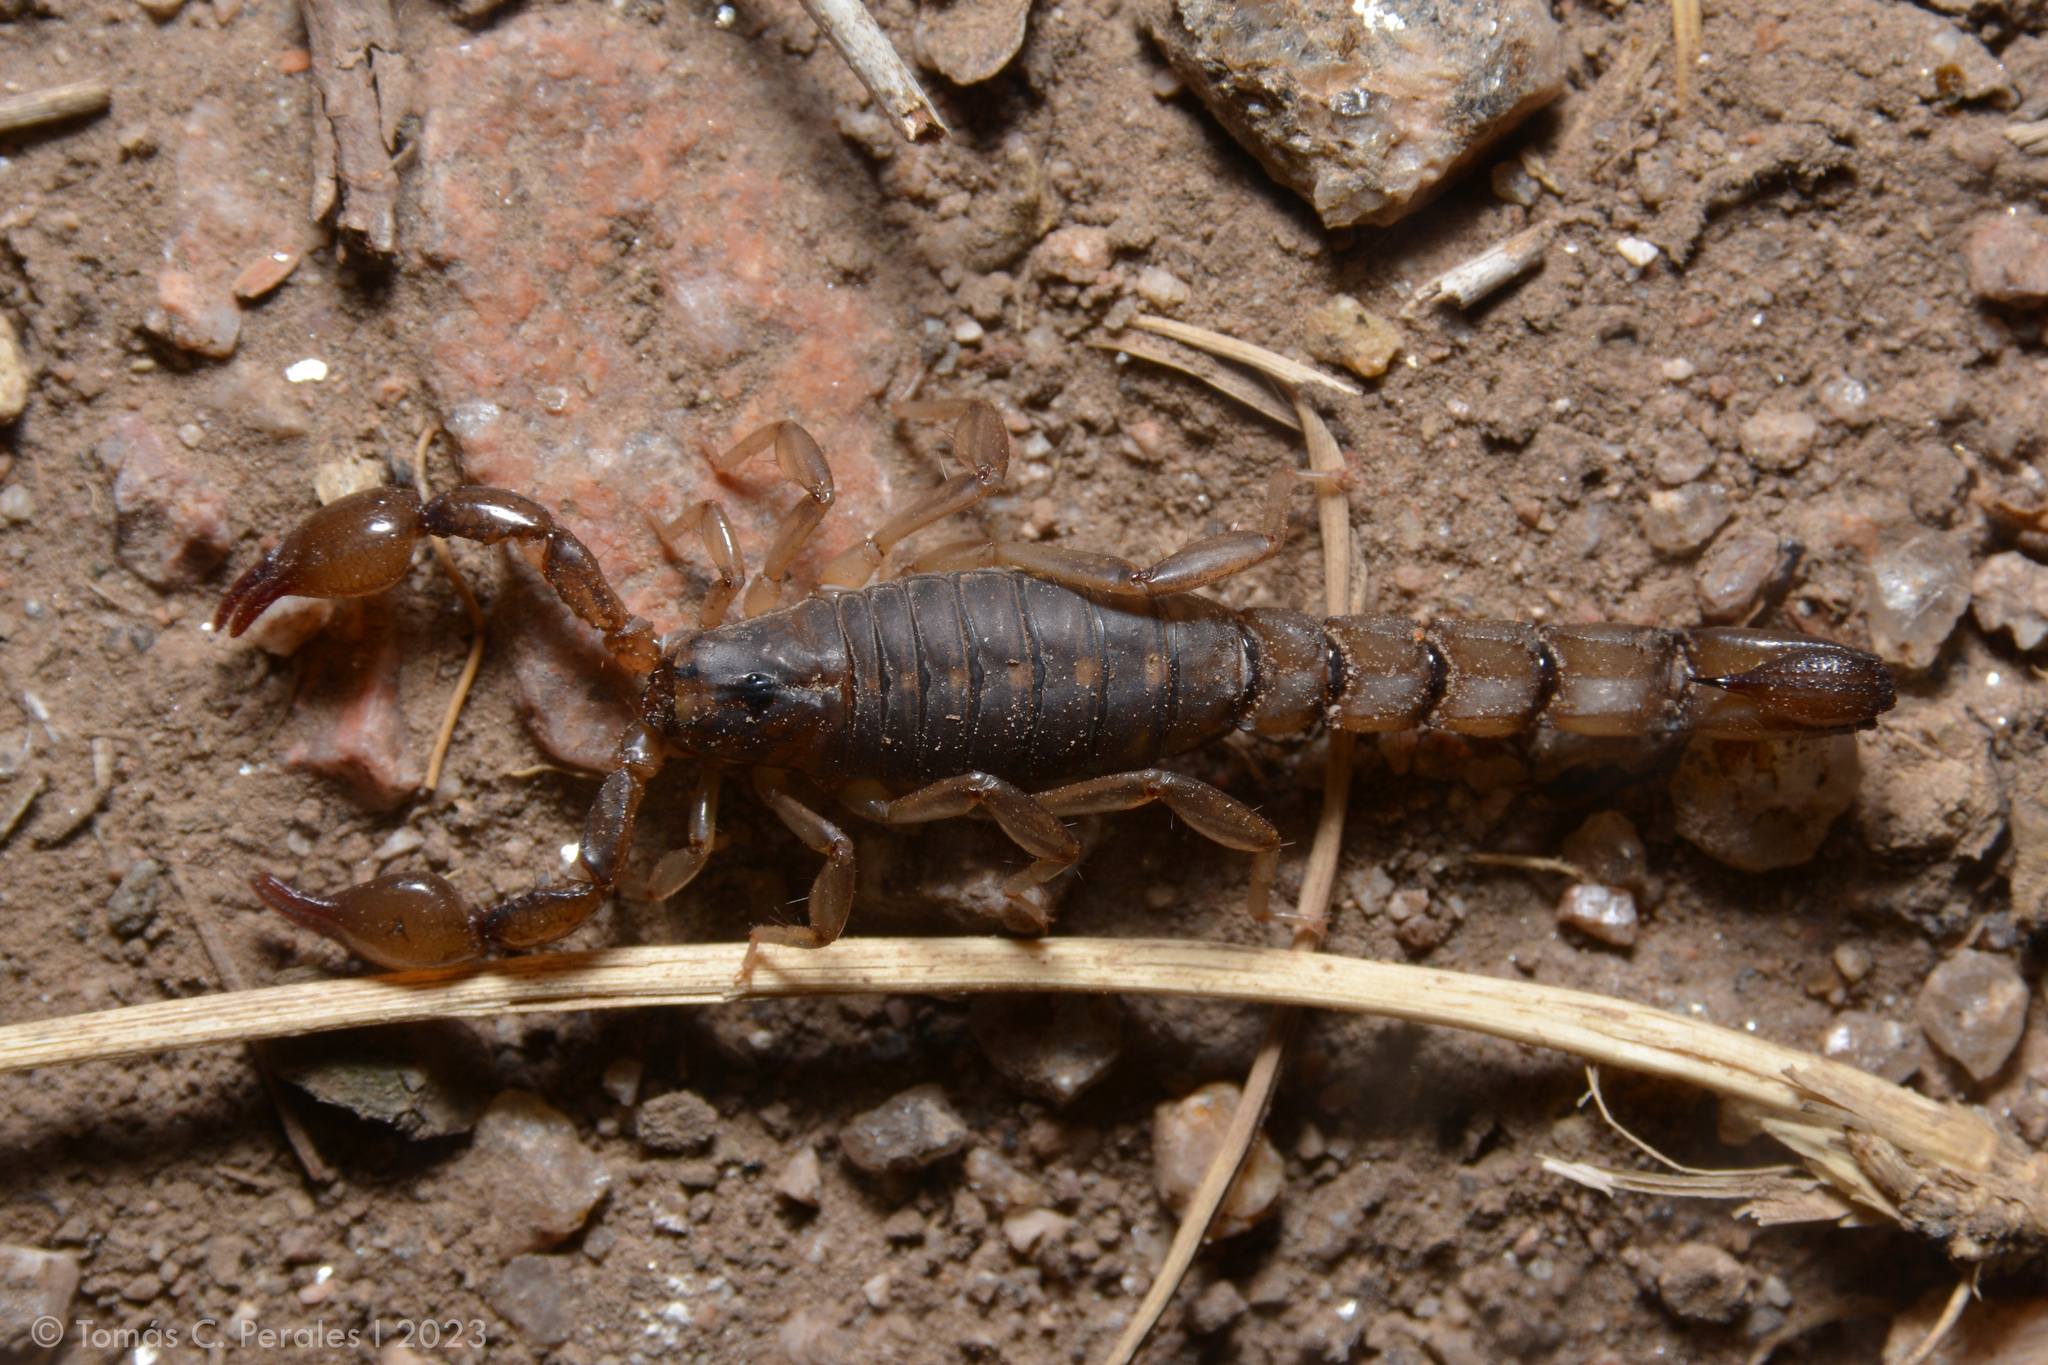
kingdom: Animalia
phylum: Arthropoda
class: Arachnida
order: Scorpiones
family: Bothriuridae
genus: Bothriurus
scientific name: Bothriurus cordubensis
